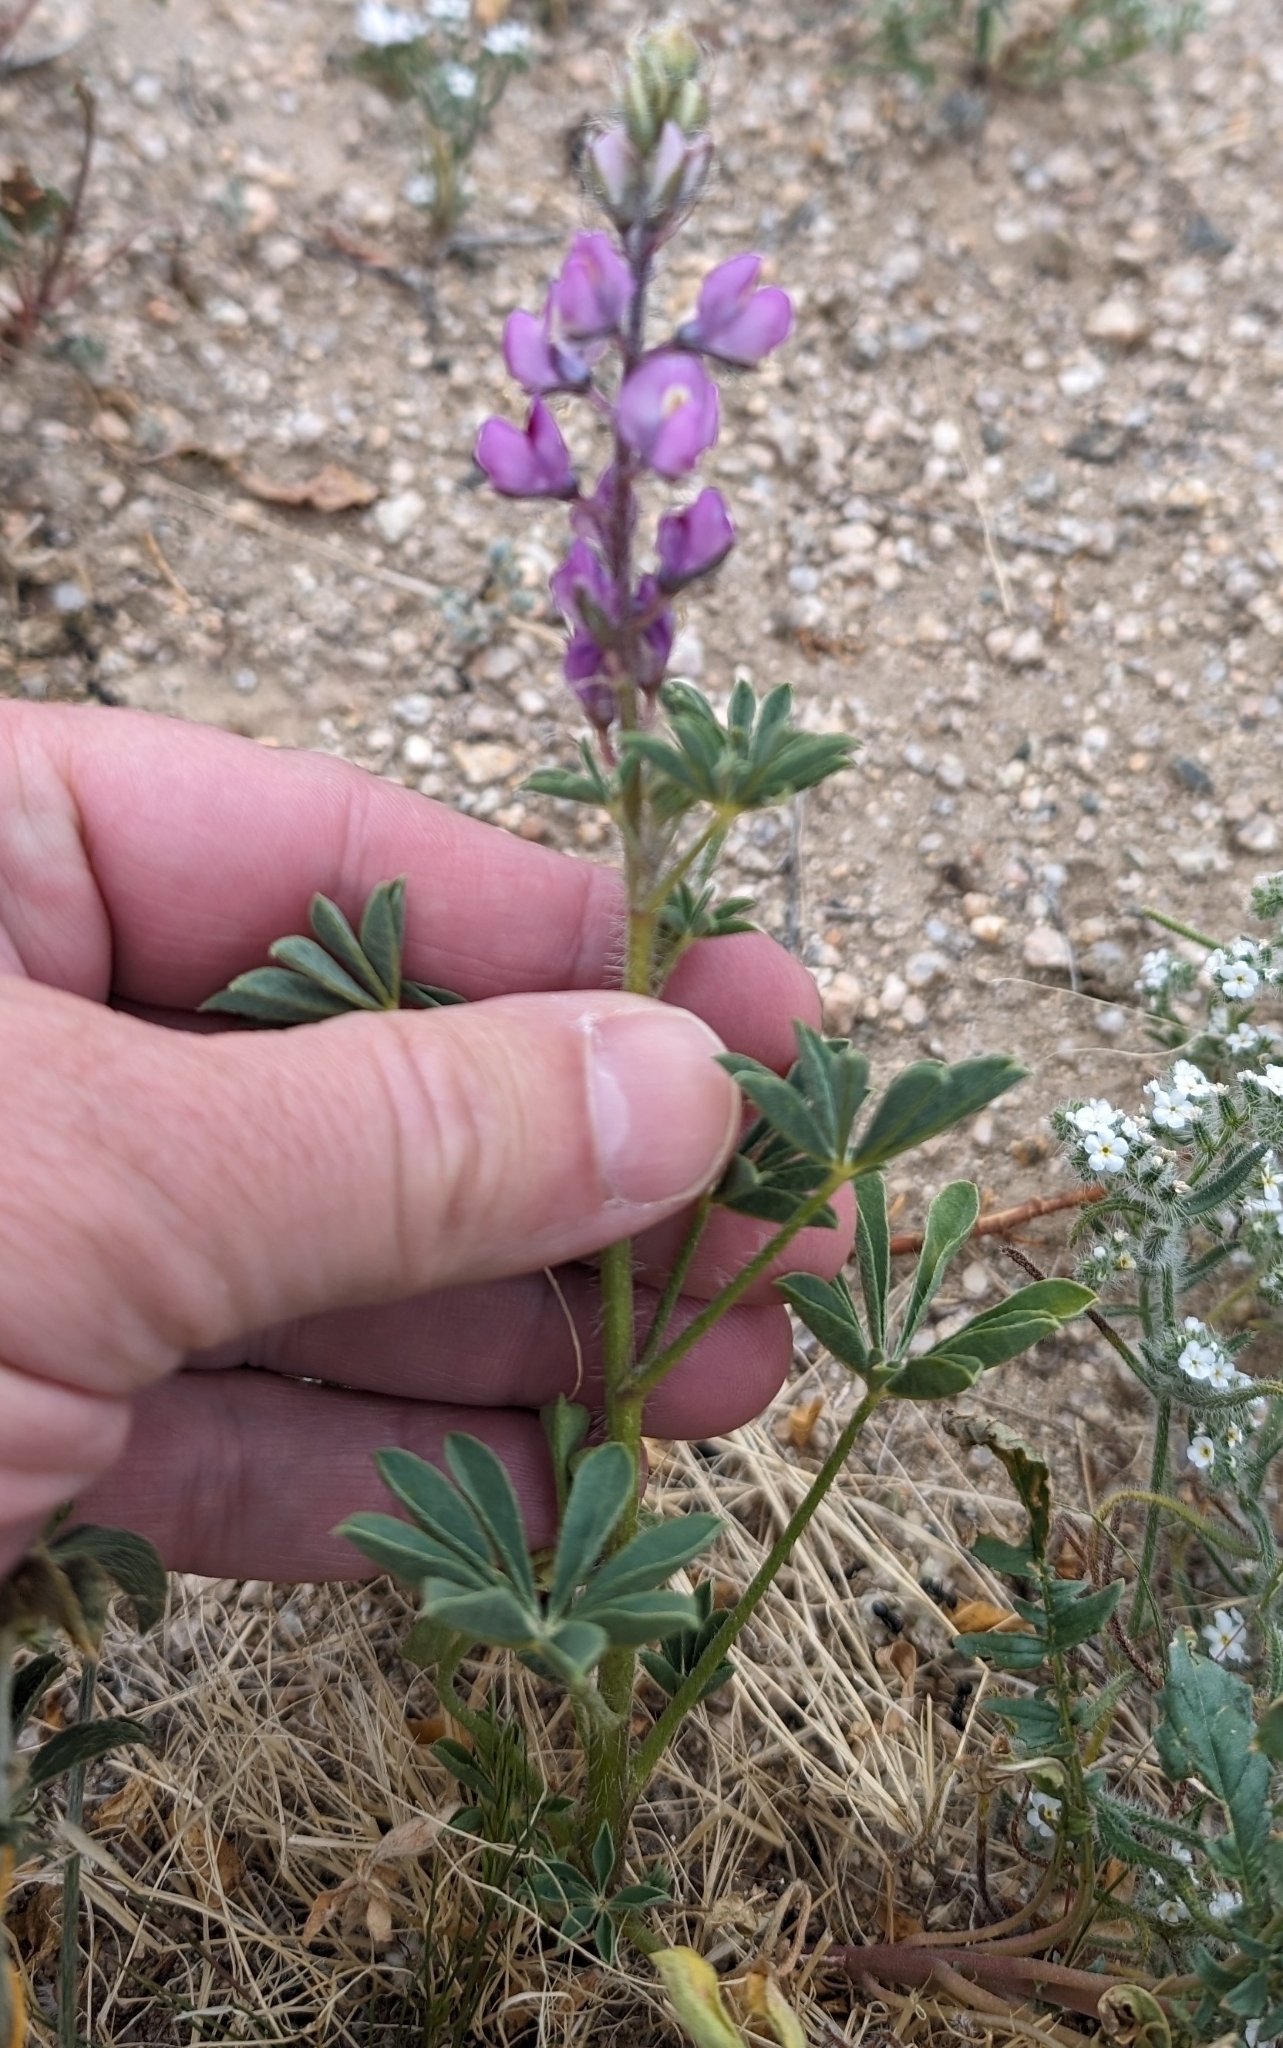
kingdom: Plantae
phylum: Tracheophyta
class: Magnoliopsida
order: Fabales
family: Fabaceae
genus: Lupinus
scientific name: Lupinus arizonicus
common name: Arizona lupine
